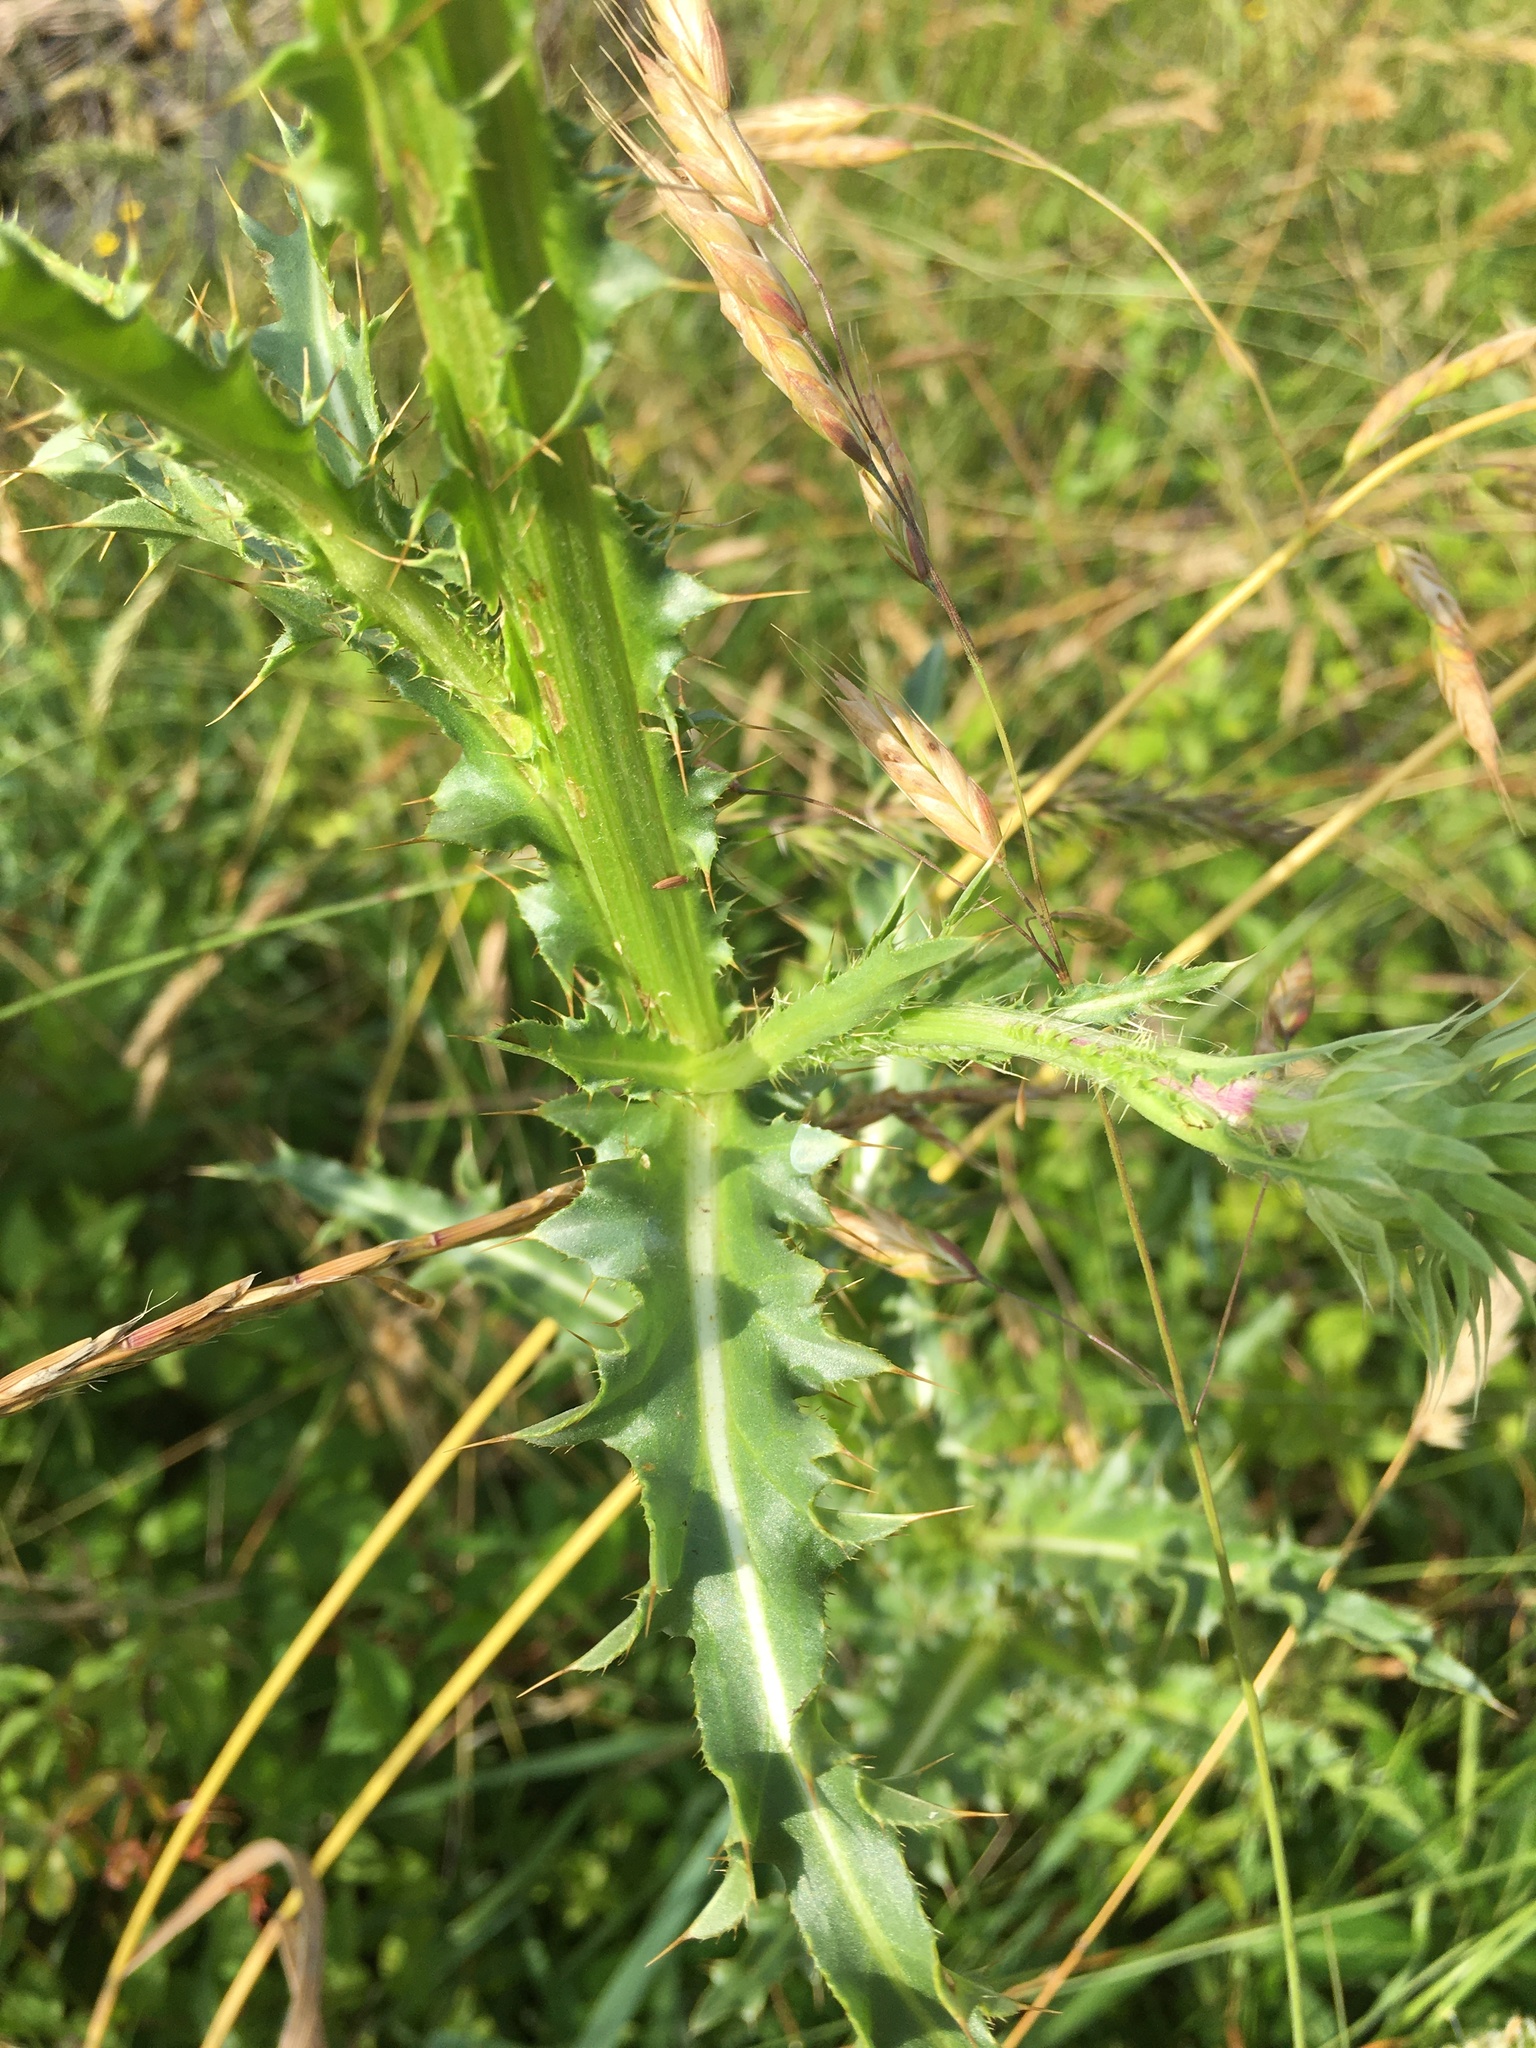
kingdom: Plantae
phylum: Tracheophyta
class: Magnoliopsida
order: Asterales
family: Asteraceae
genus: Carduus
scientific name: Carduus nutans
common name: Musk thistle
